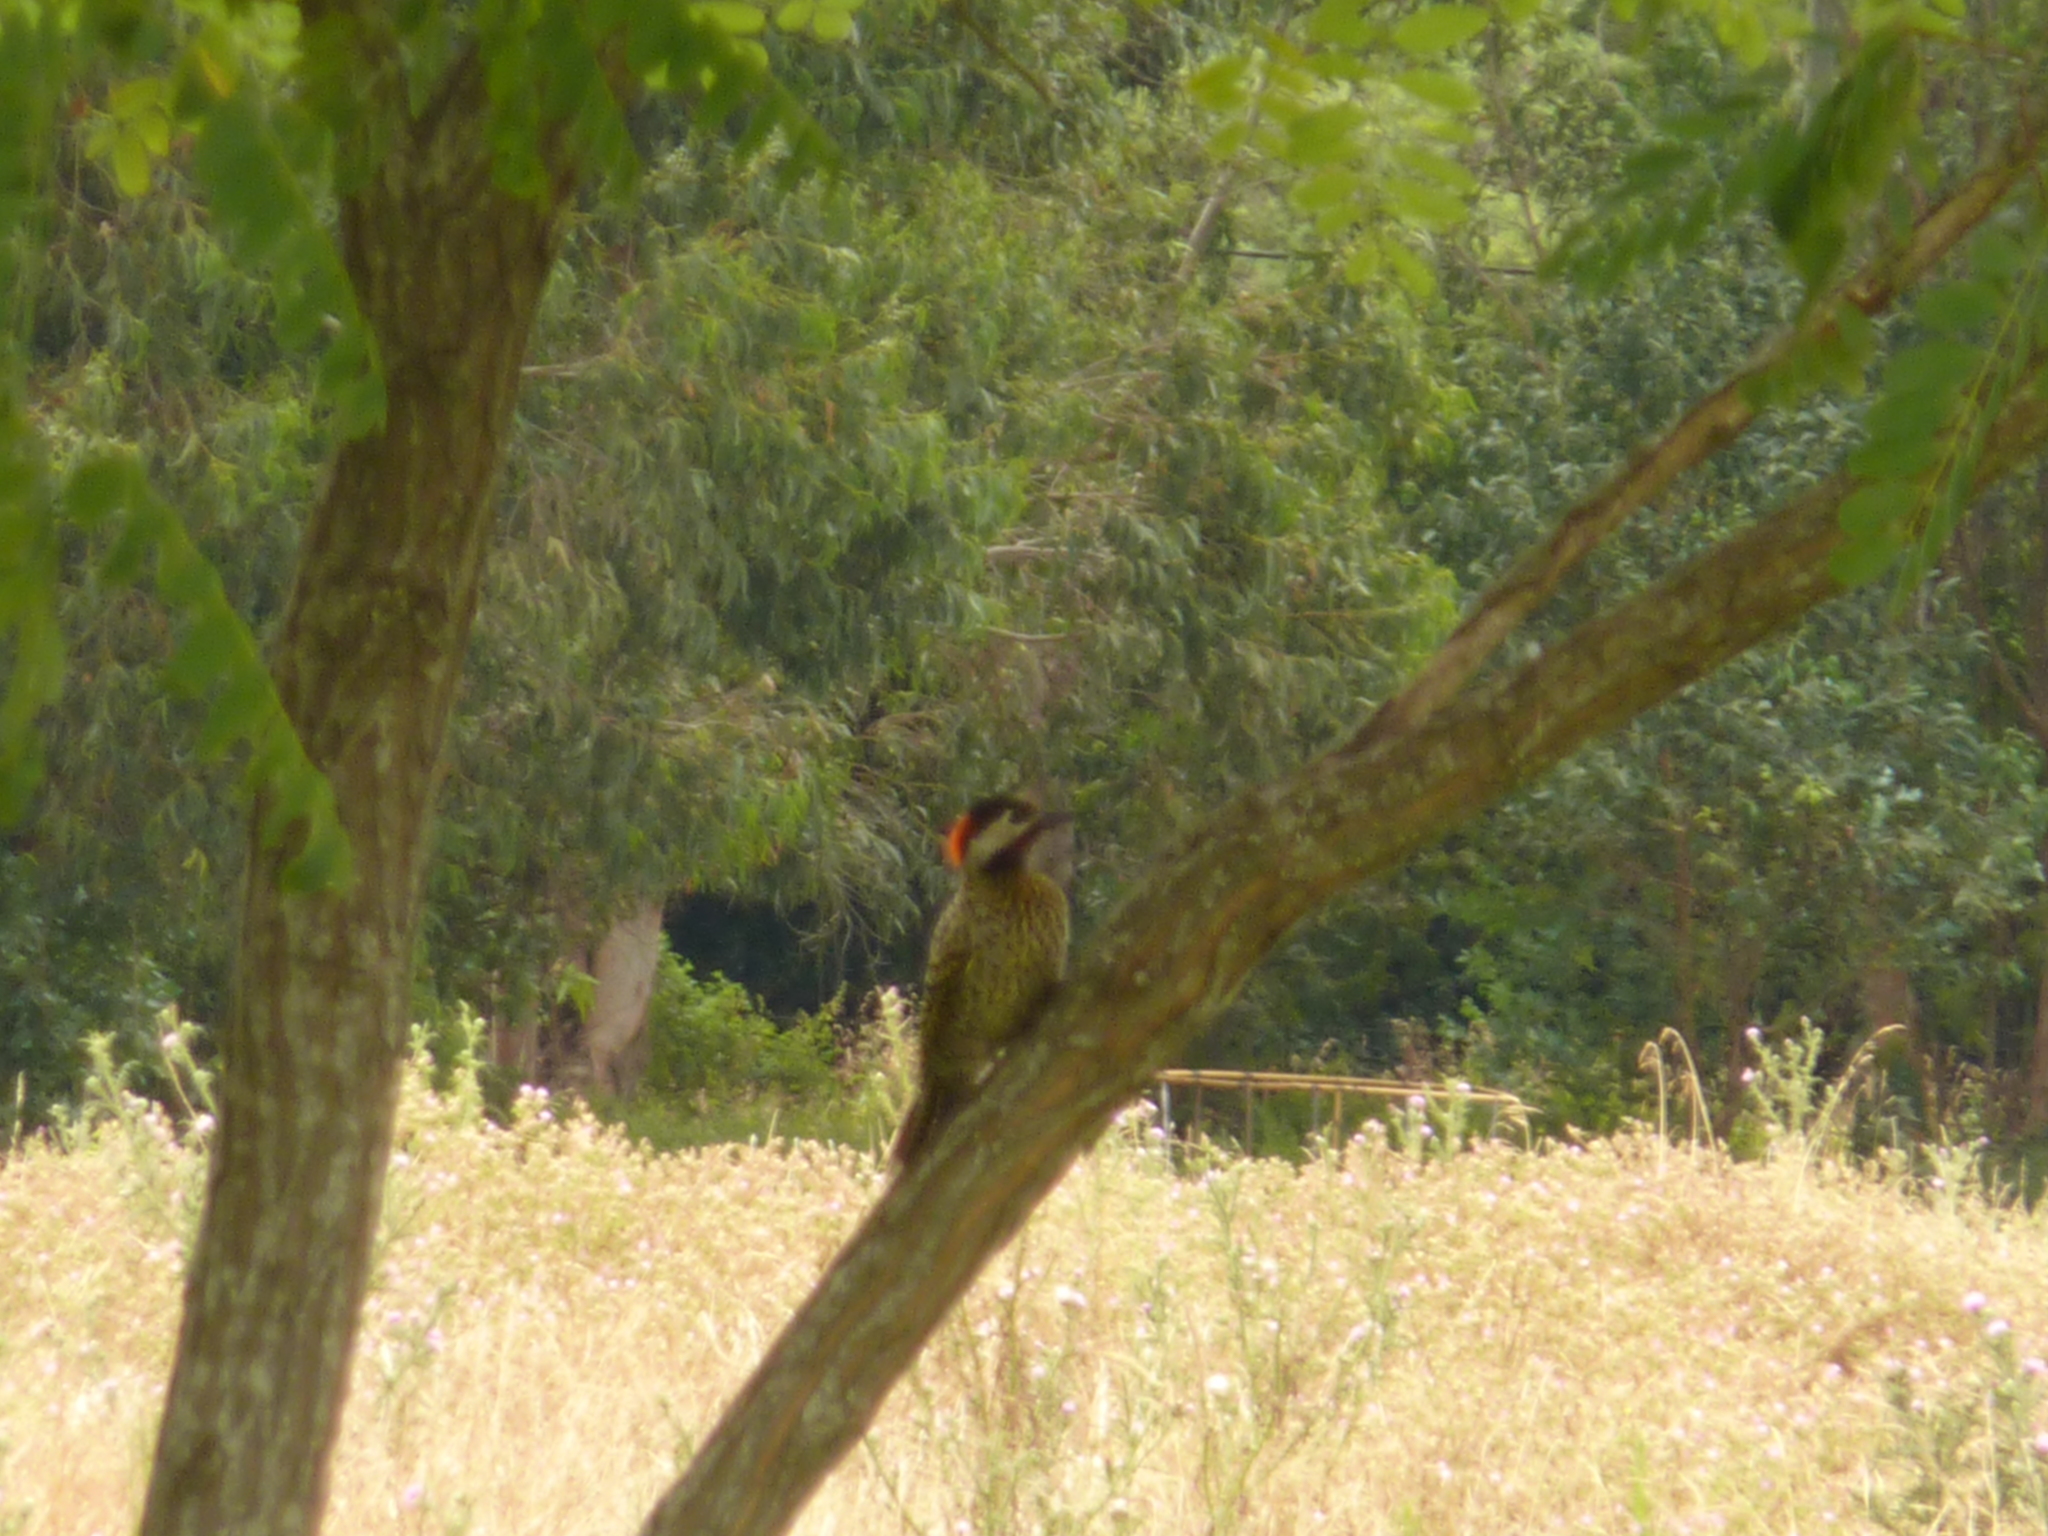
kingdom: Animalia
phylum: Chordata
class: Aves
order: Piciformes
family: Picidae
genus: Colaptes
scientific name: Colaptes melanochloros
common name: Green-barred woodpecker
